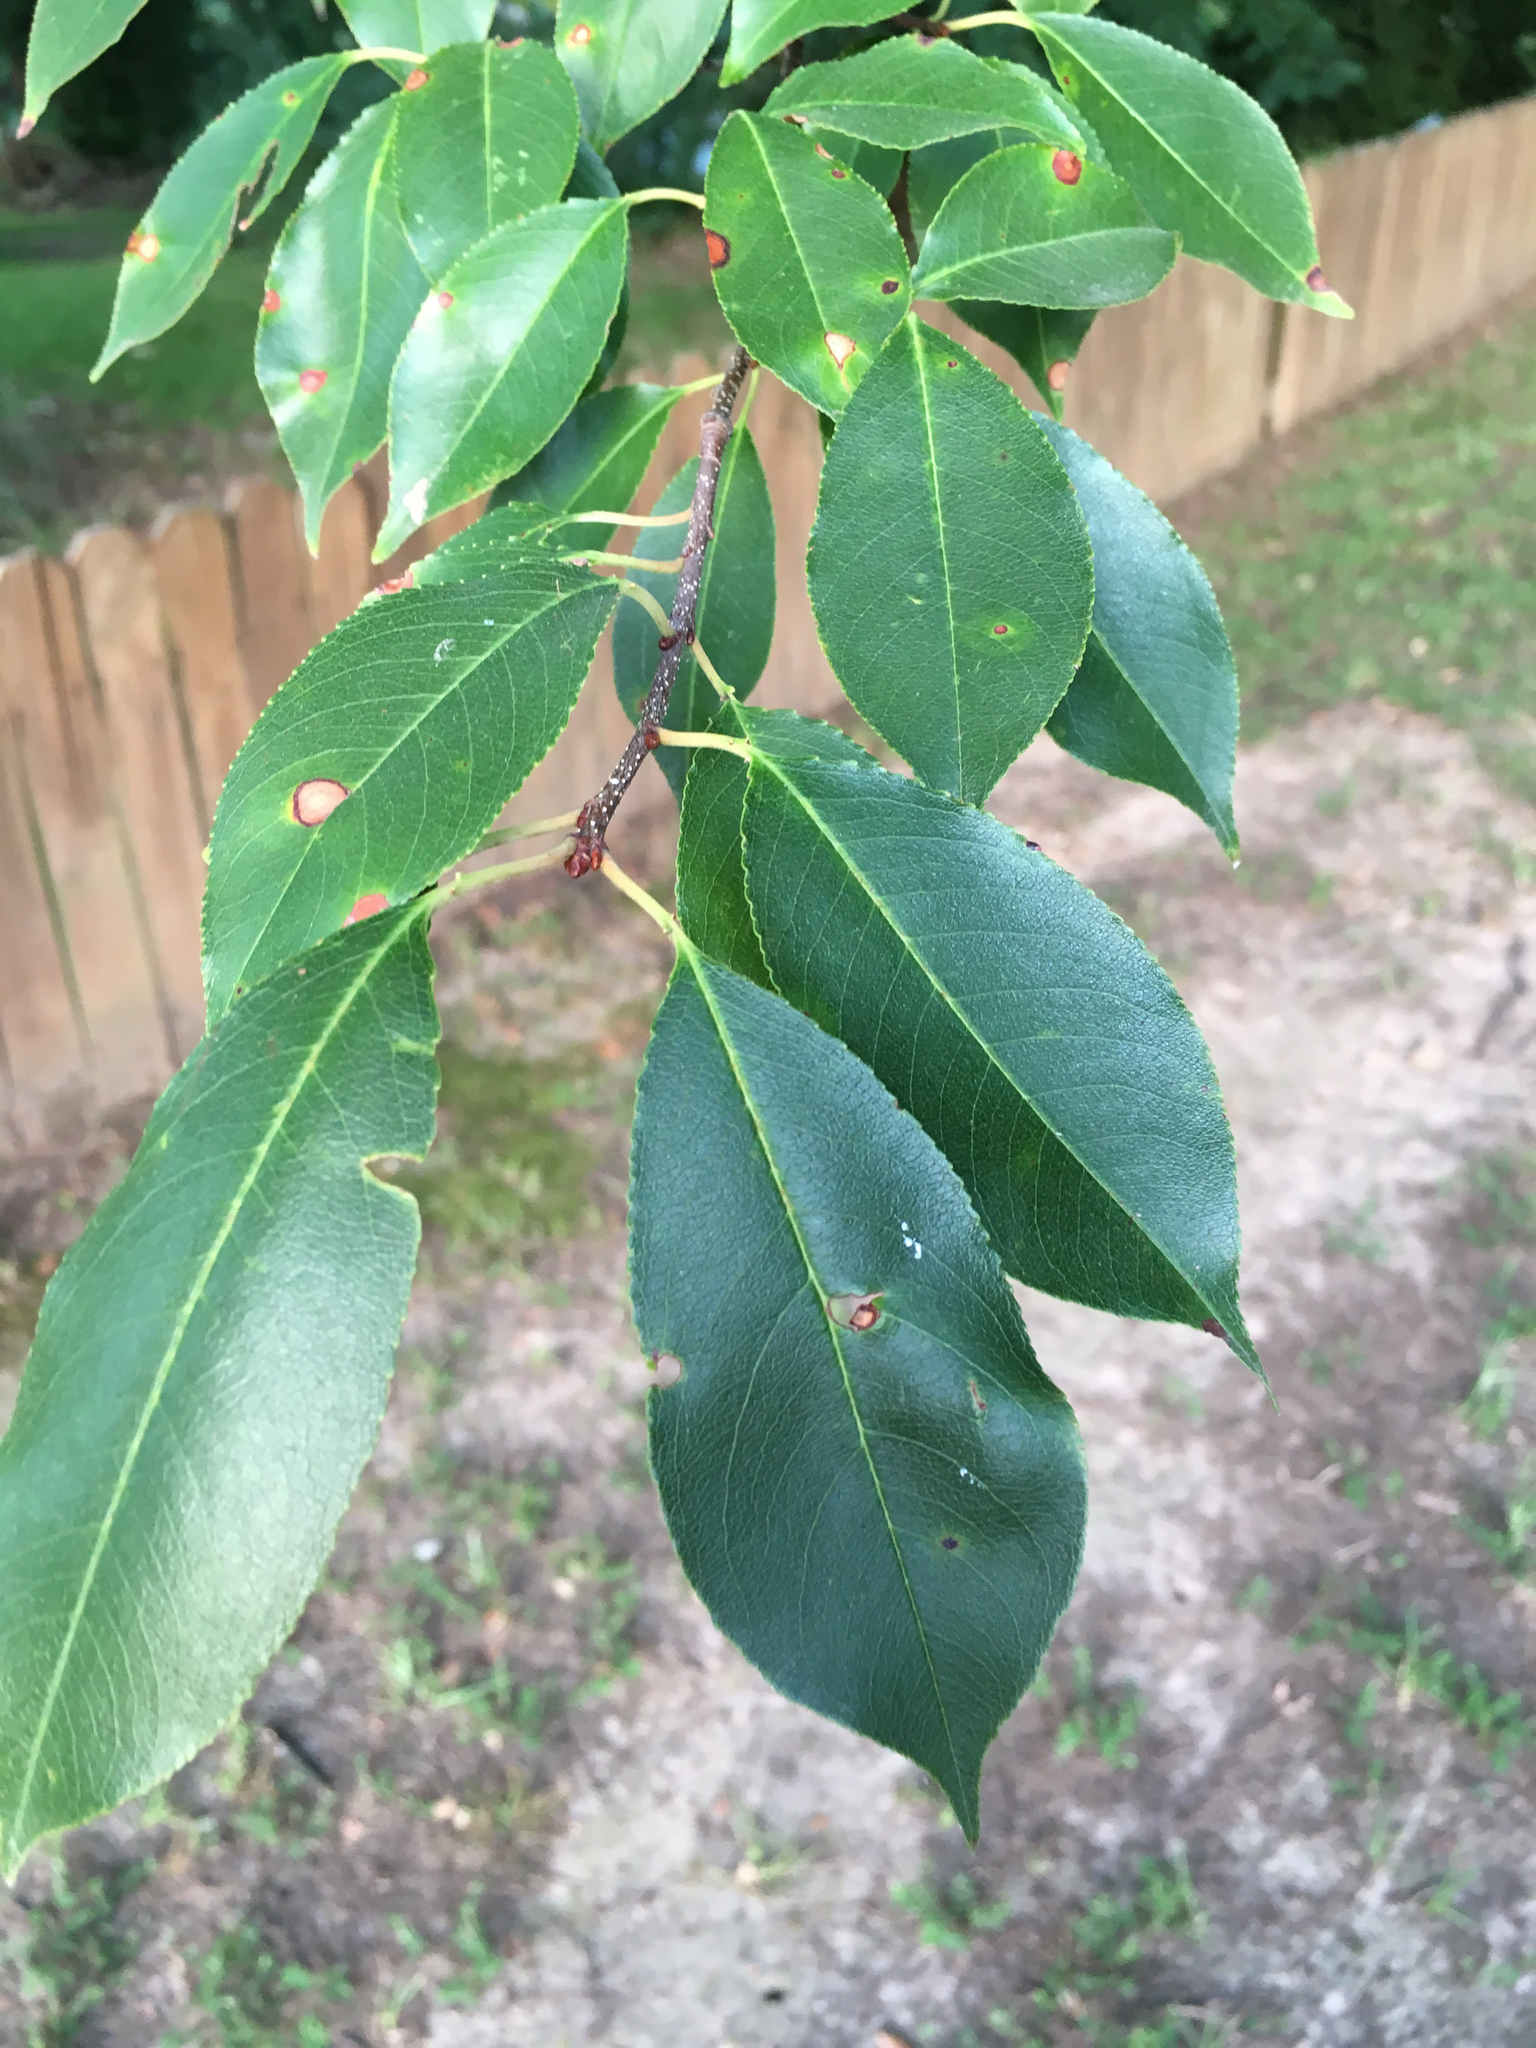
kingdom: Plantae
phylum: Tracheophyta
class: Magnoliopsida
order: Rosales
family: Rosaceae
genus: Prunus
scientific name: Prunus serotina
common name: Black cherry
